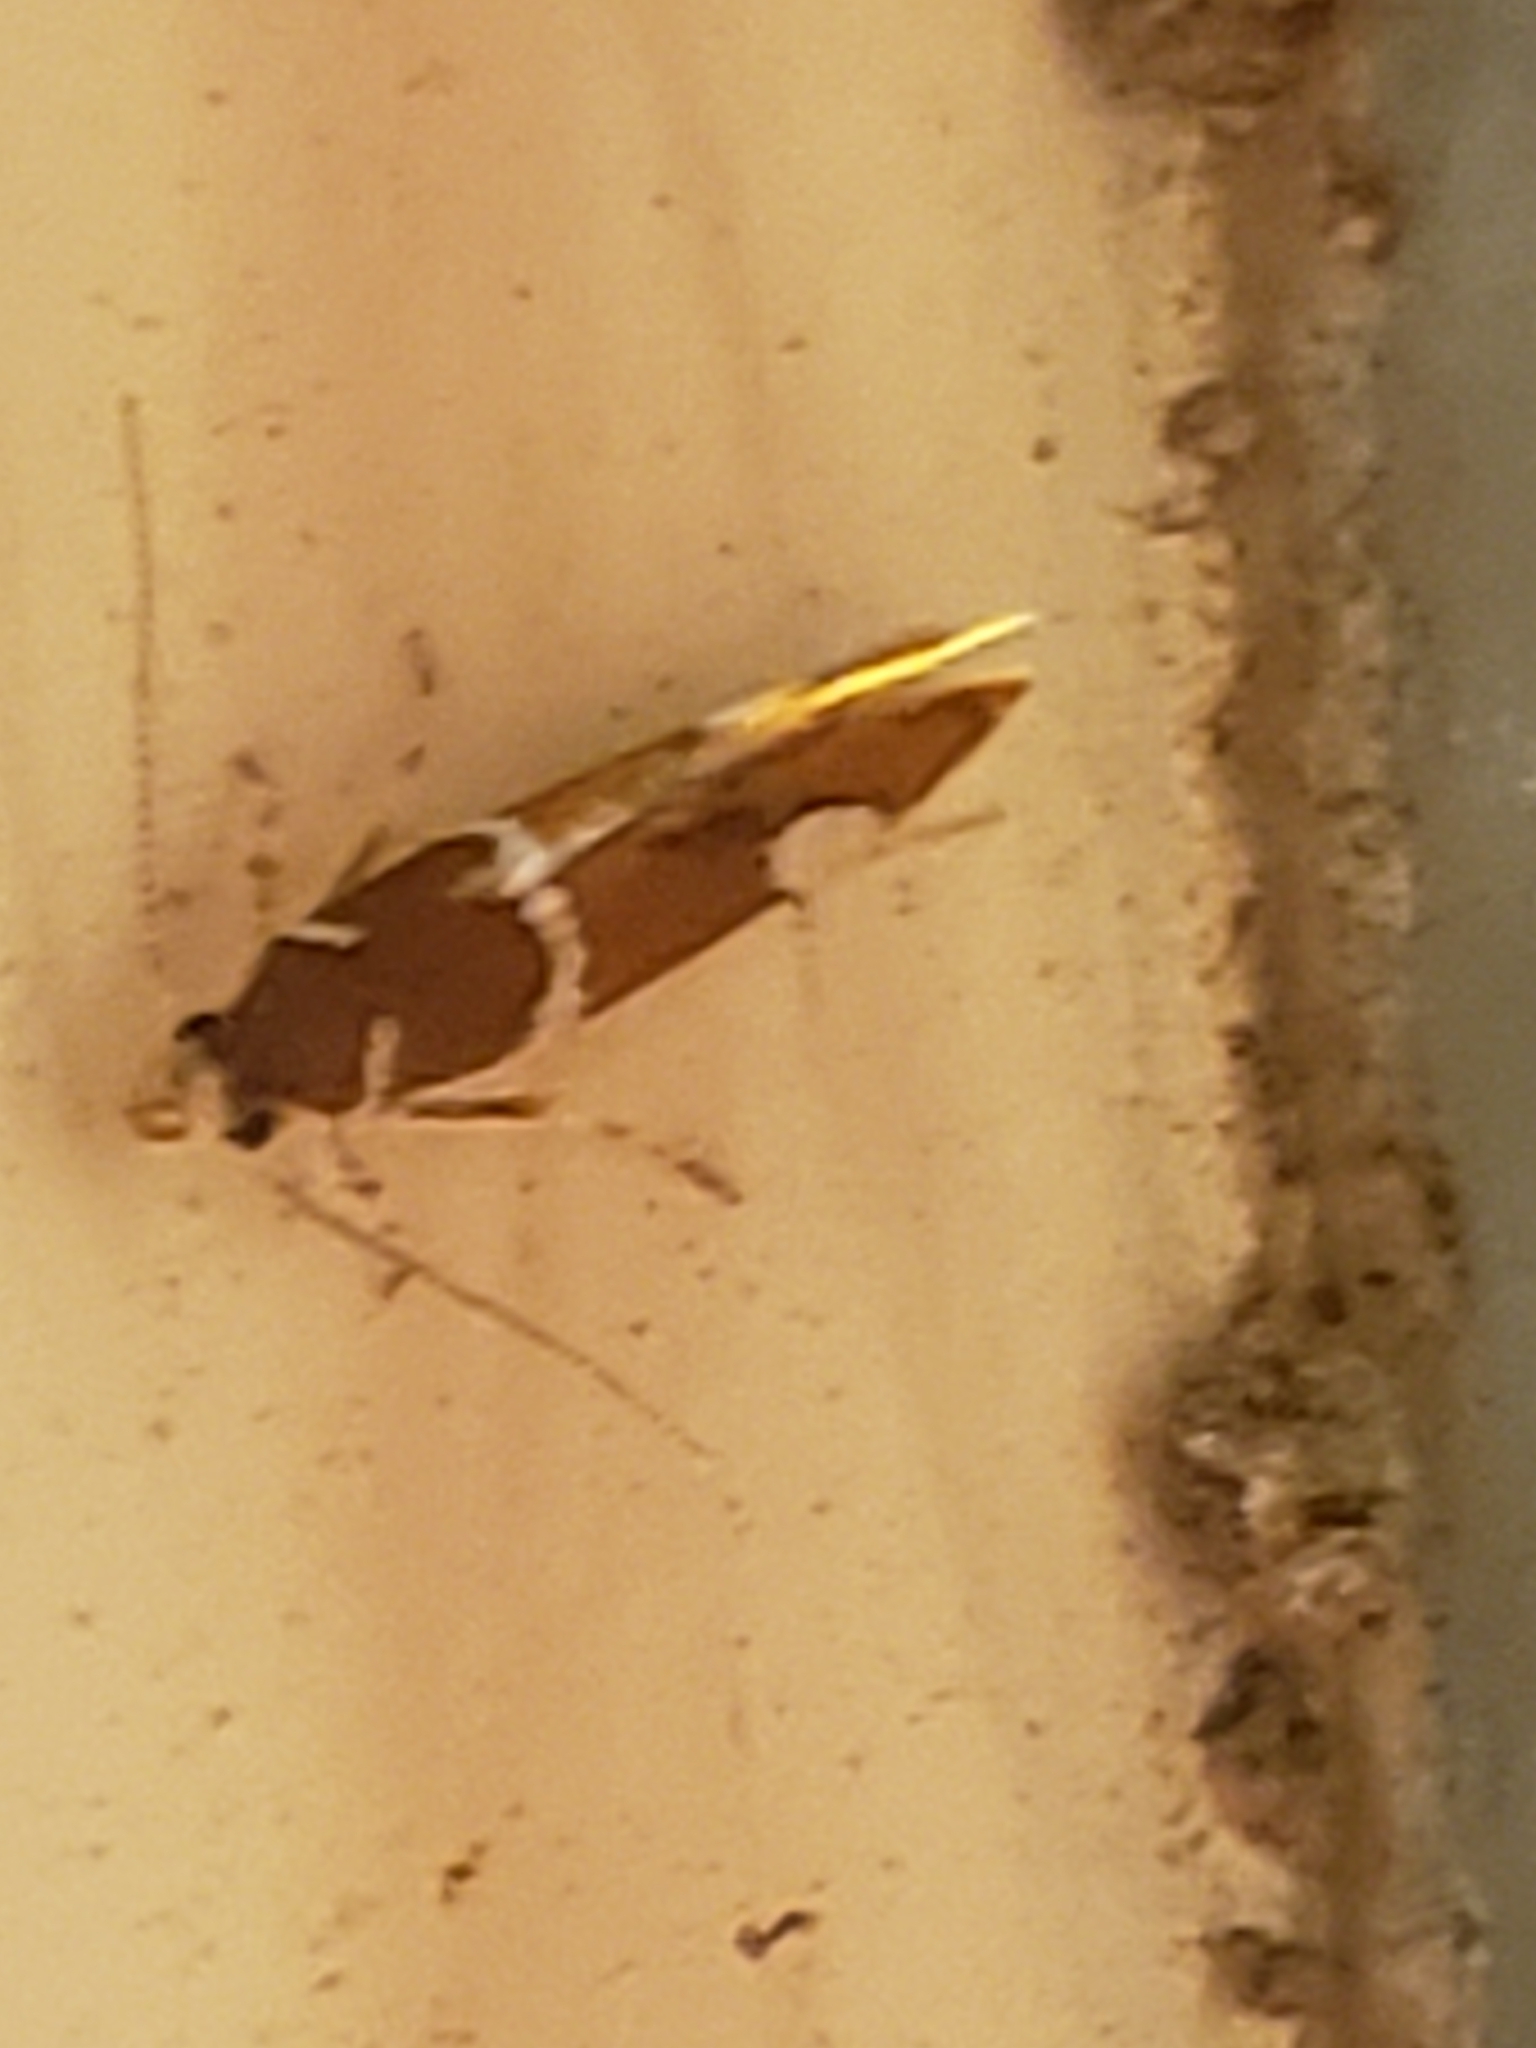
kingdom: Animalia
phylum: Arthropoda
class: Insecta
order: Lepidoptera
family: Oecophoridae
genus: Promalactis
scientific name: Promalactis suzukiella
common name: Moth
